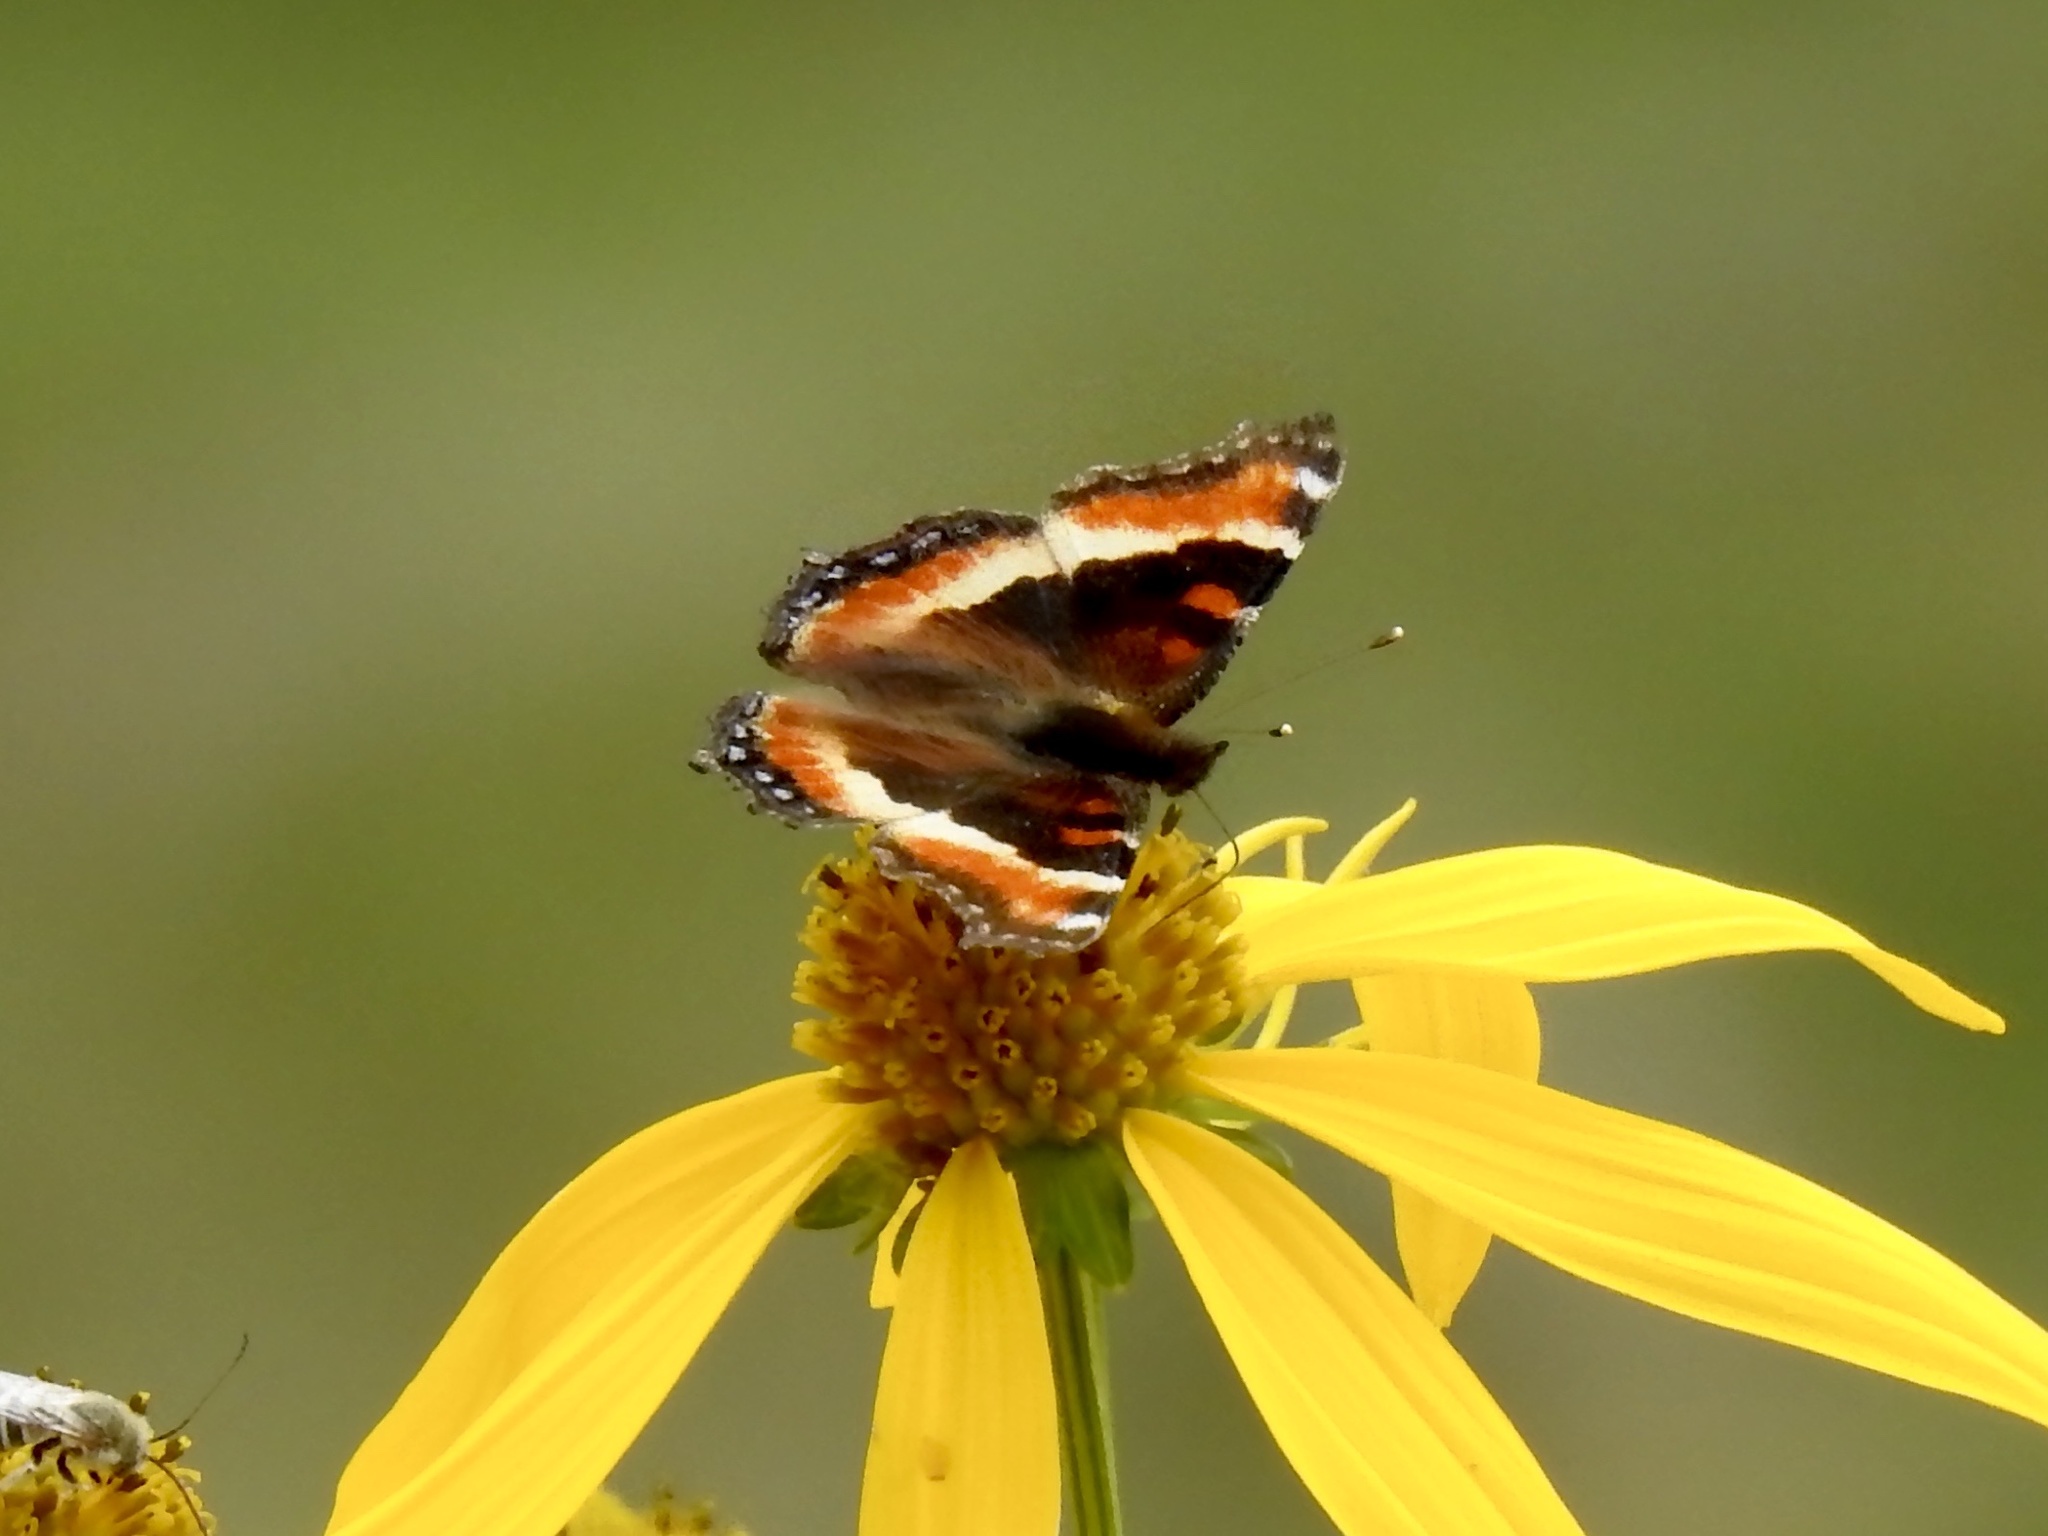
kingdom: Animalia
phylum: Arthropoda
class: Insecta
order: Lepidoptera
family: Nymphalidae
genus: Aglais
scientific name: Aglais milberti
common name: Milbert's tortoiseshell
